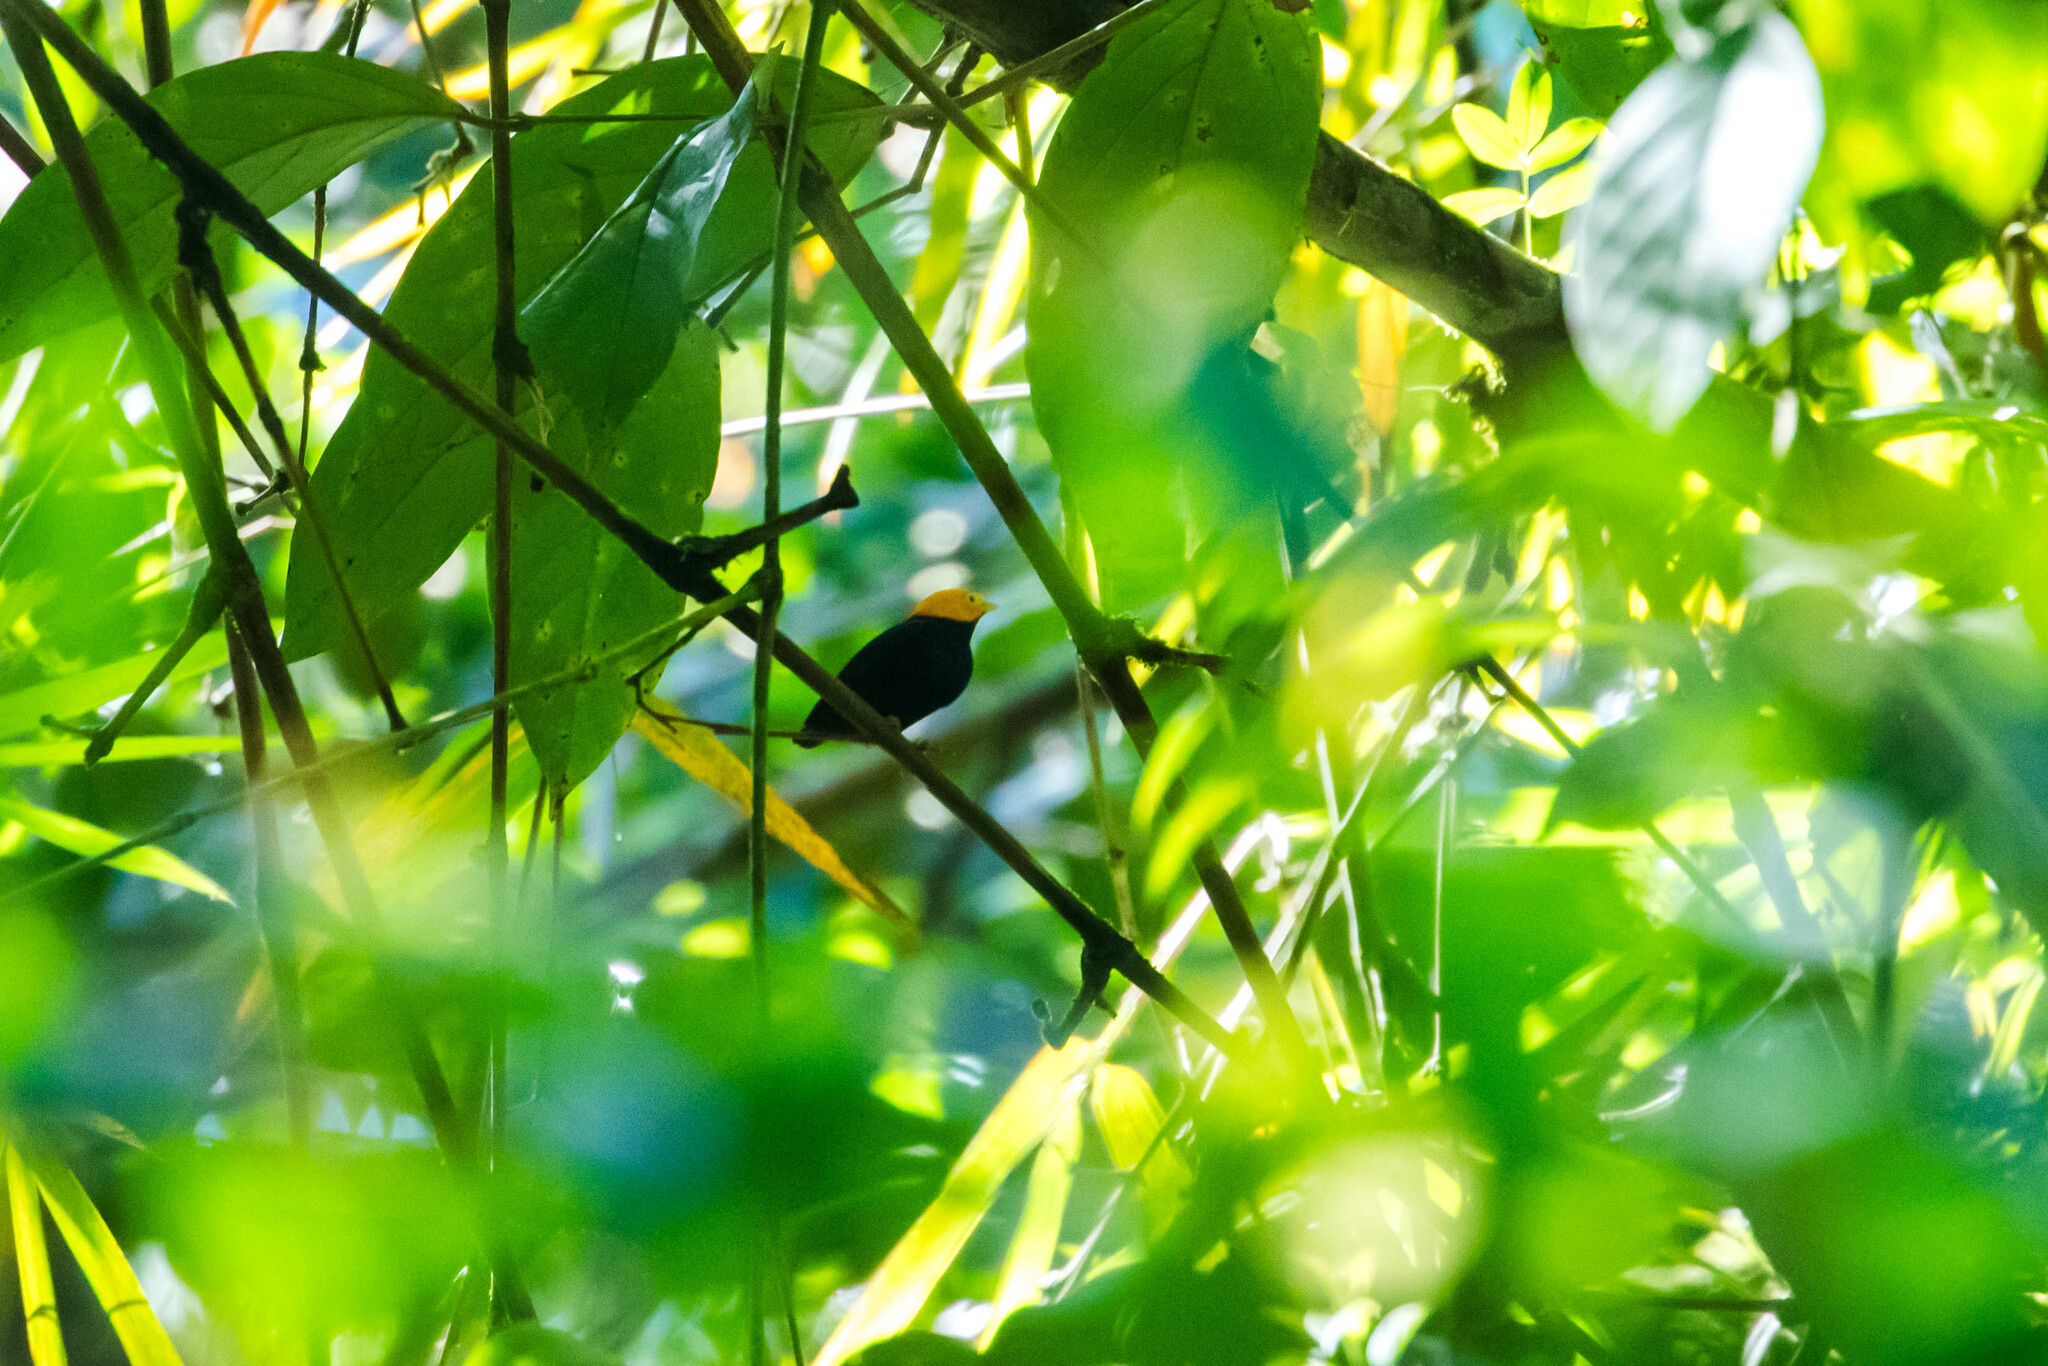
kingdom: Animalia
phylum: Chordata
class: Aves
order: Passeriformes
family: Pipridae
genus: Pipra
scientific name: Pipra erythrocephala
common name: Golden-headed manakin
